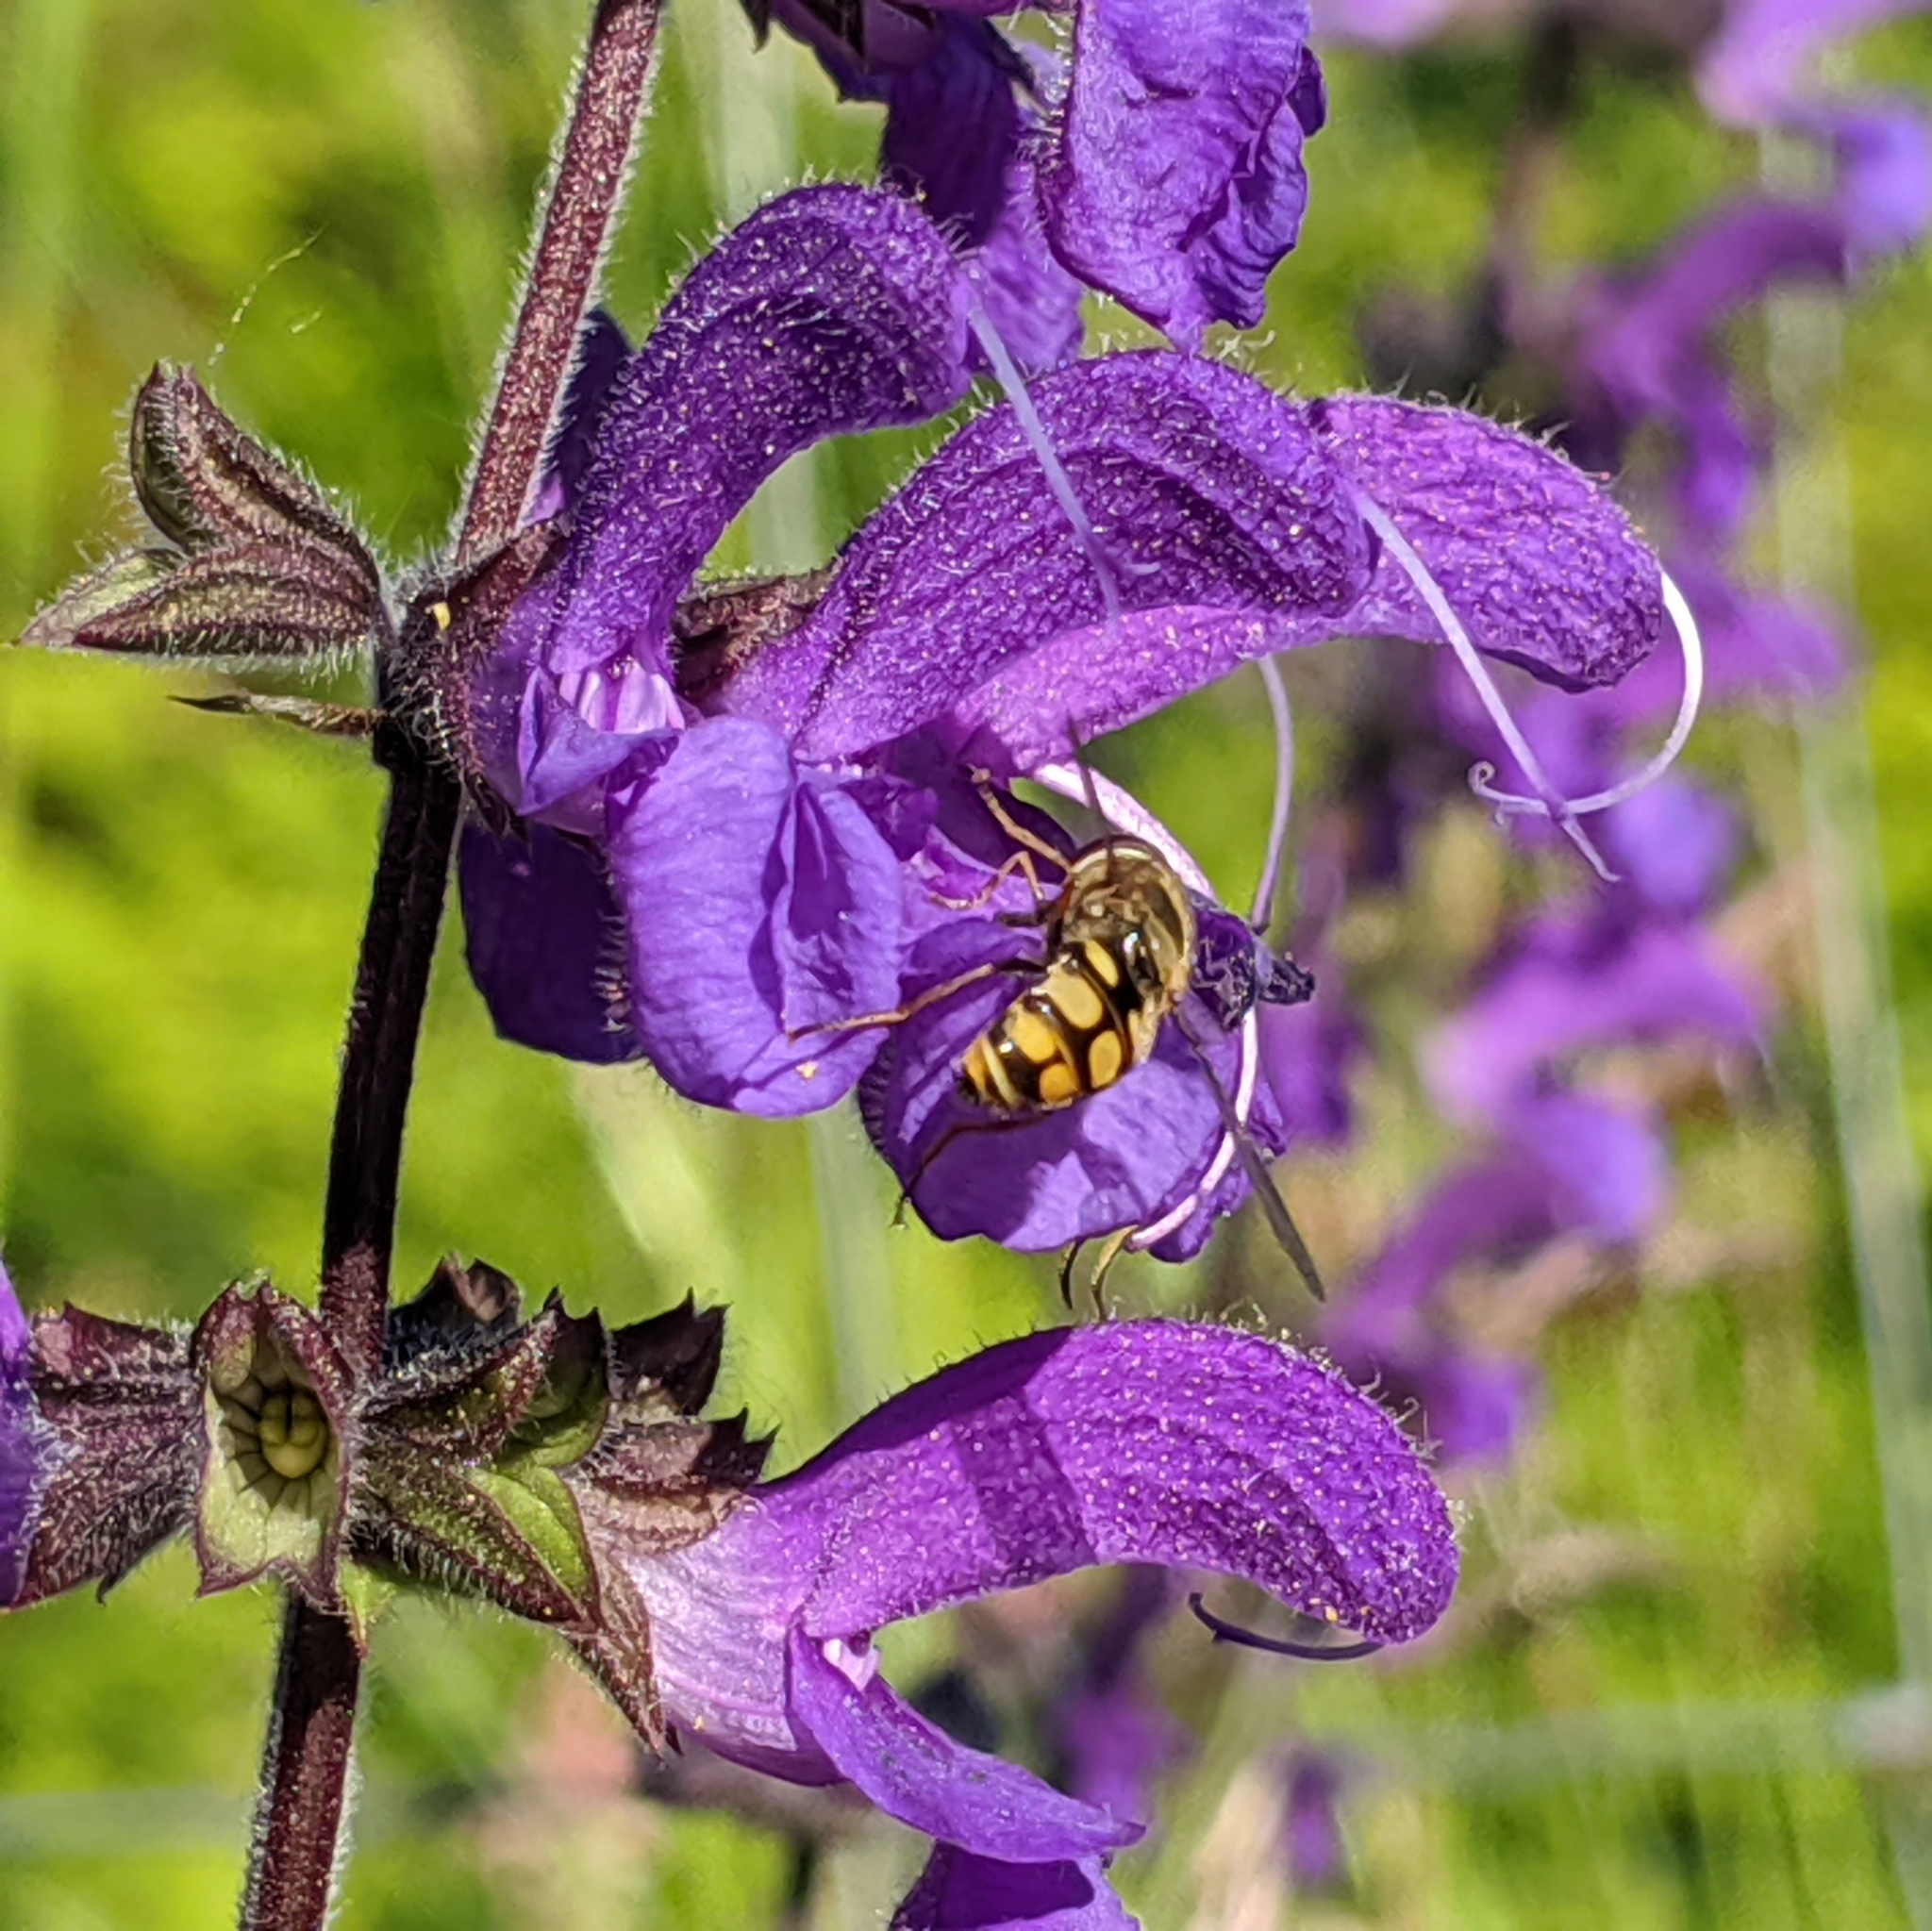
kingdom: Animalia
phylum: Arthropoda
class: Insecta
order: Diptera
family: Syrphidae
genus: Eupeodes
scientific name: Eupeodes corollae
